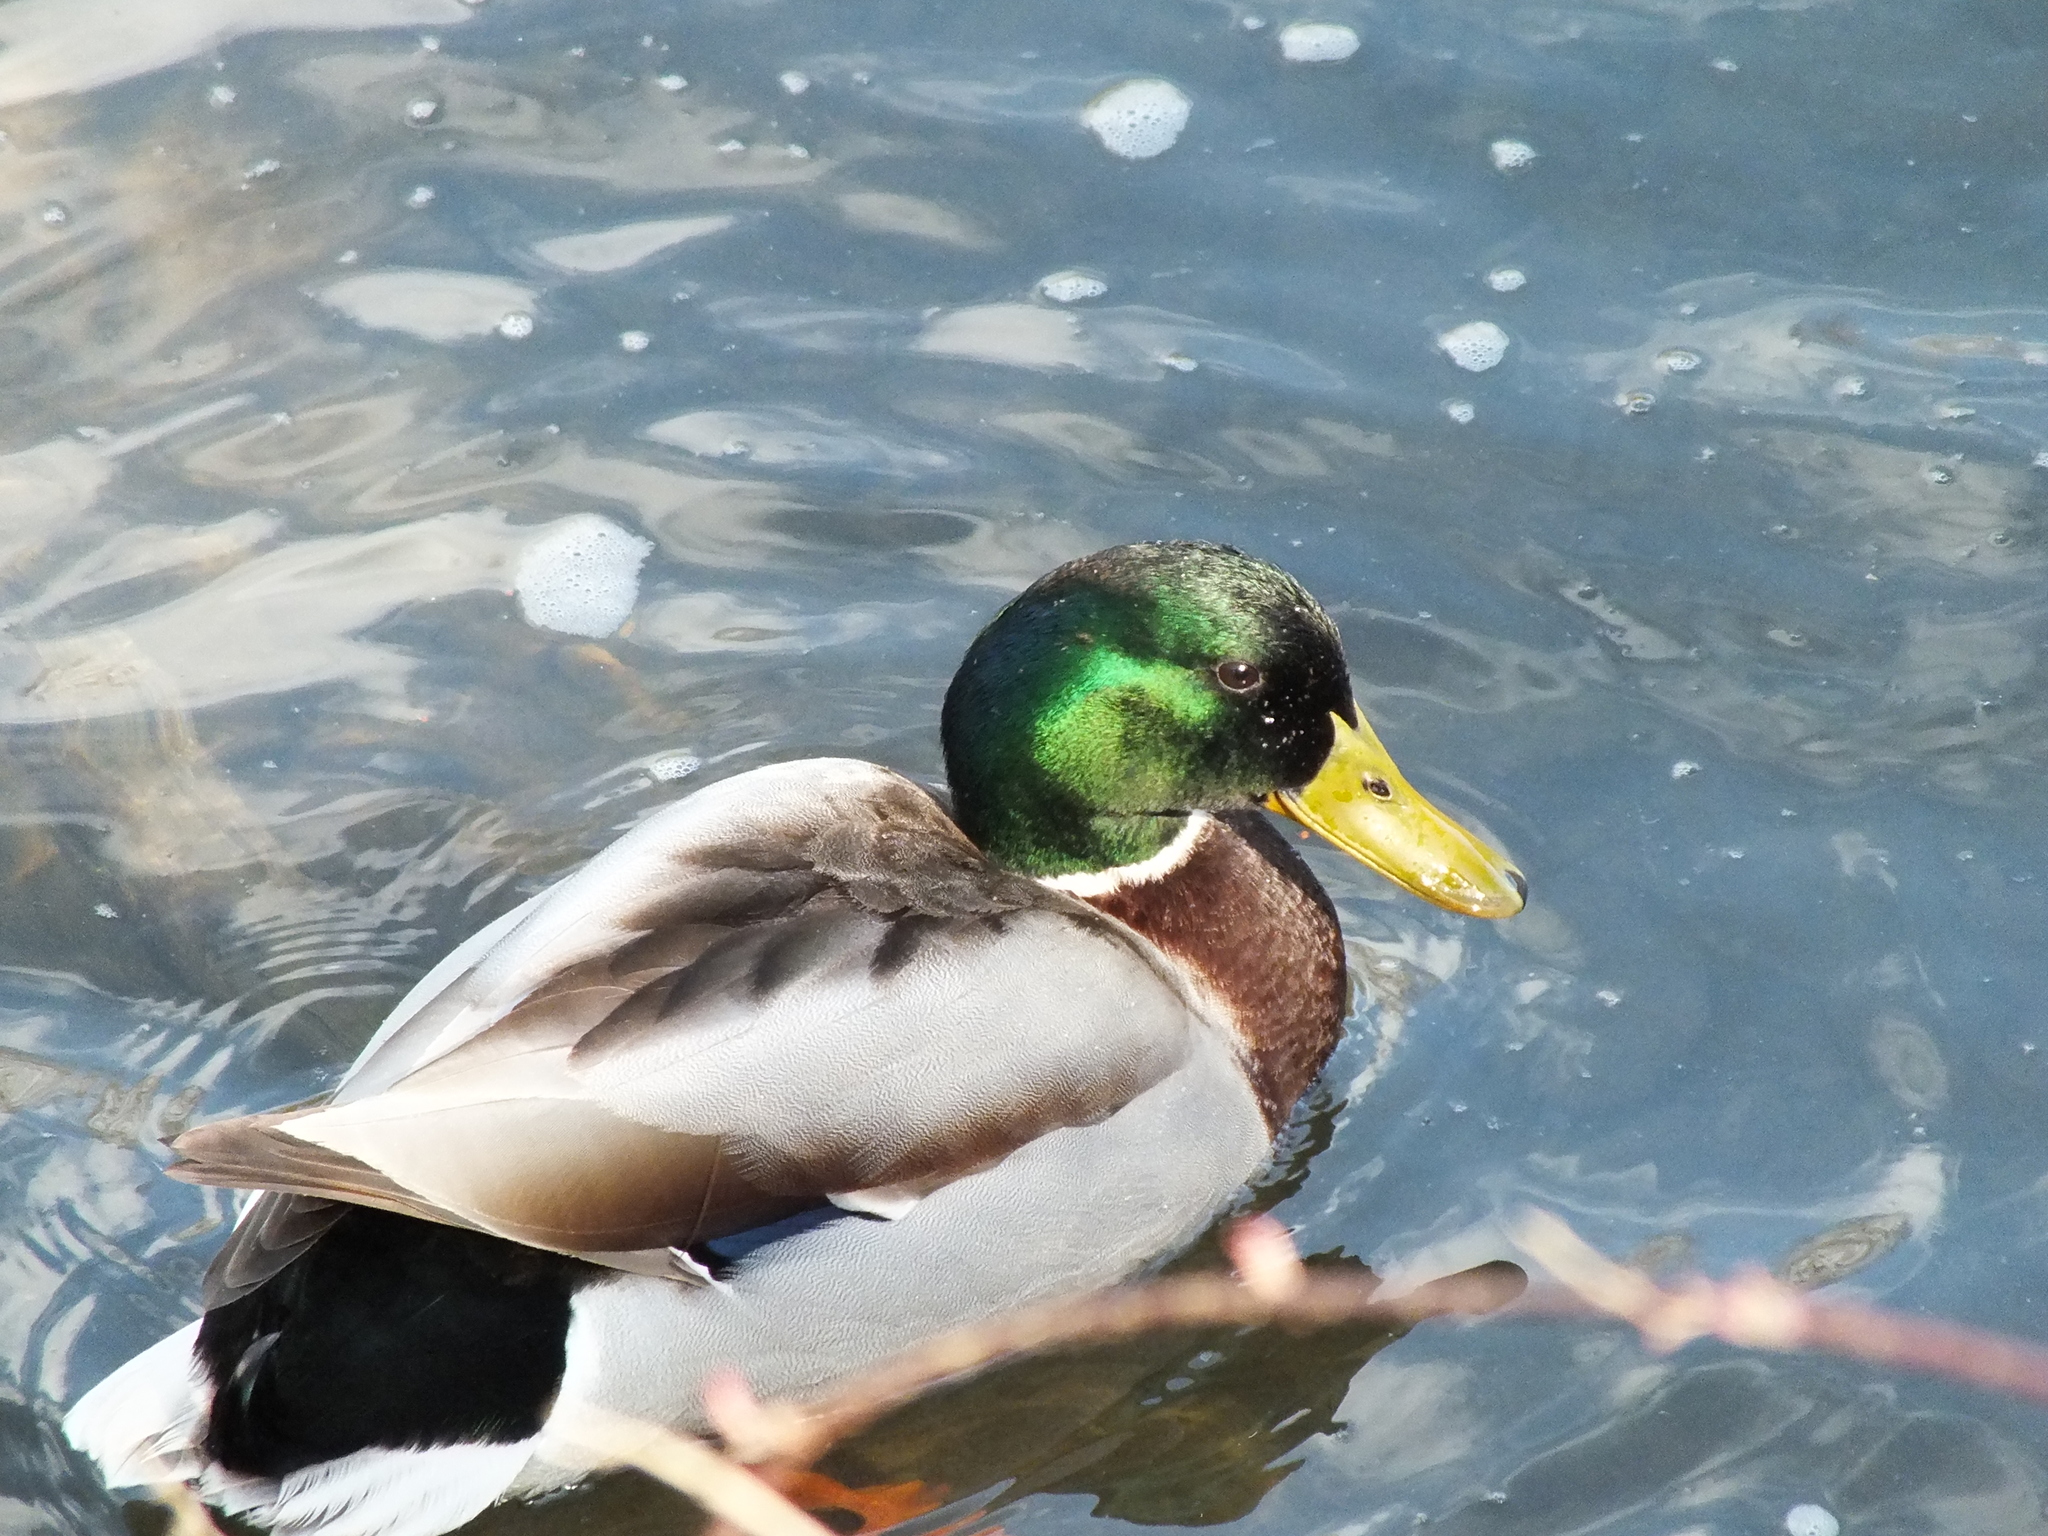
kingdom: Animalia
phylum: Chordata
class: Aves
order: Anseriformes
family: Anatidae
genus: Anas
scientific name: Anas platyrhynchos
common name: Mallard
